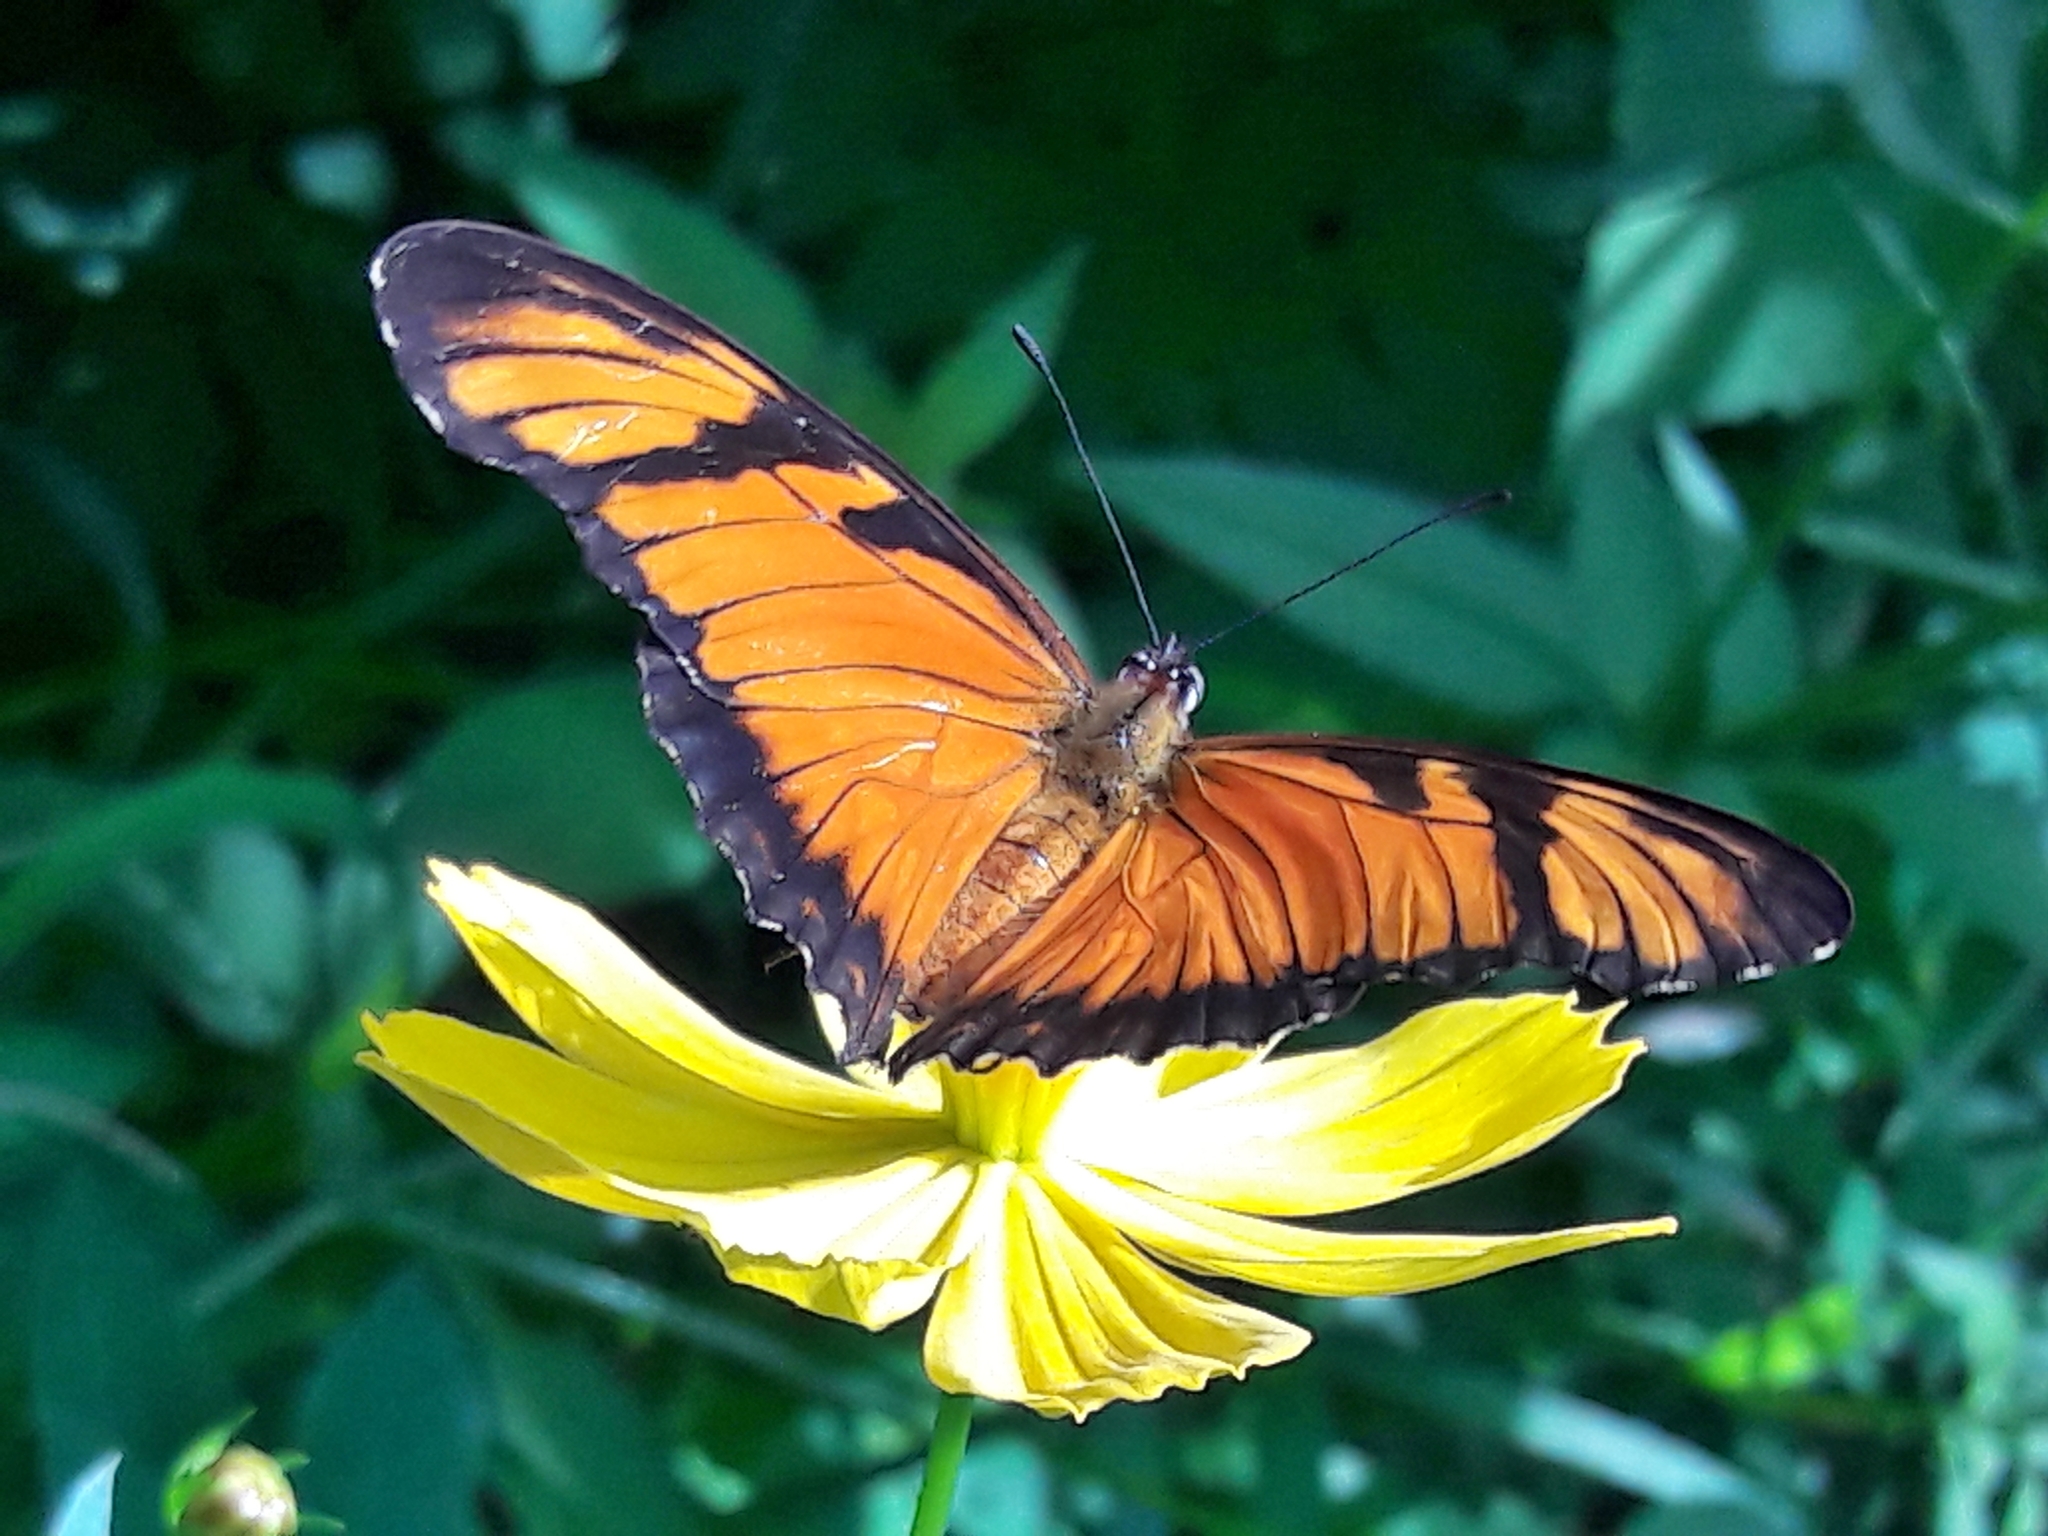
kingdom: Animalia
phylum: Arthropoda
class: Insecta
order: Lepidoptera
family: Nymphalidae
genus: Dione
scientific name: Dione juno
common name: Juno silverspot
